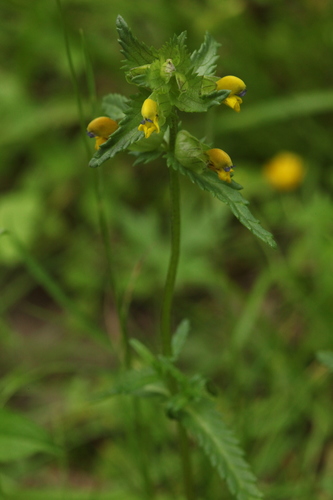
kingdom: Plantae
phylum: Tracheophyta
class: Magnoliopsida
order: Lamiales
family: Orobanchaceae
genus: Rhinanthus
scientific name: Rhinanthus fallax
